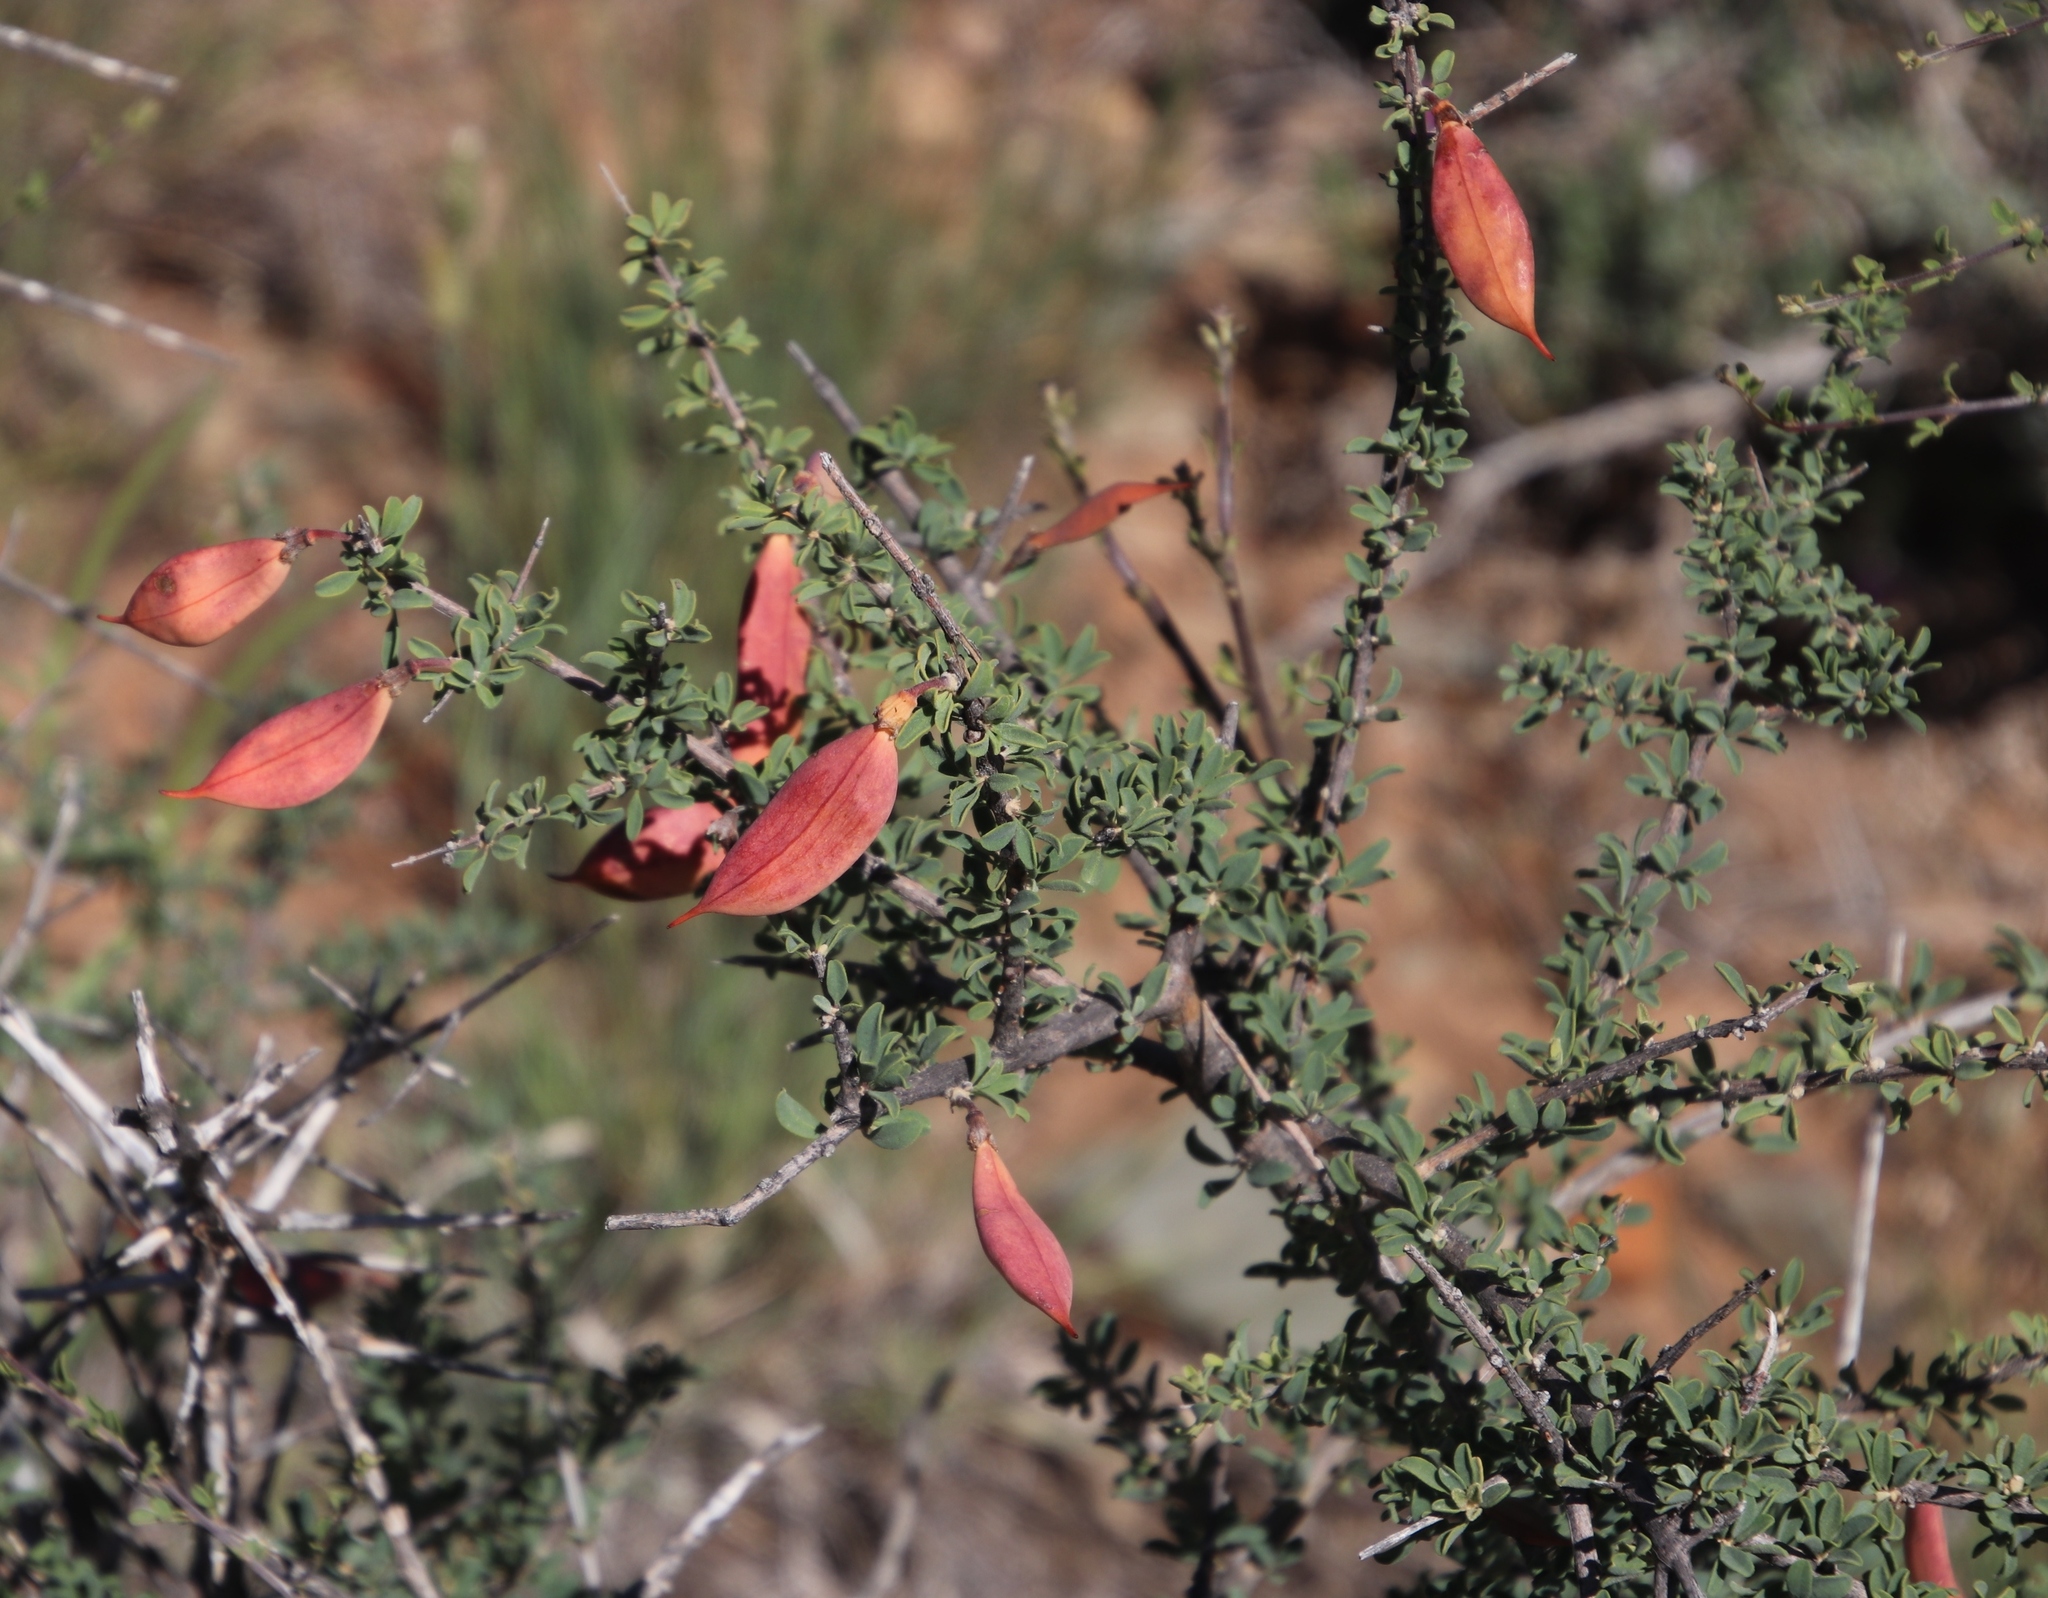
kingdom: Plantae
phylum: Tracheophyta
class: Magnoliopsida
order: Lamiales
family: Bignoniaceae
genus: Rhigozum
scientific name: Rhigozum obovatum
